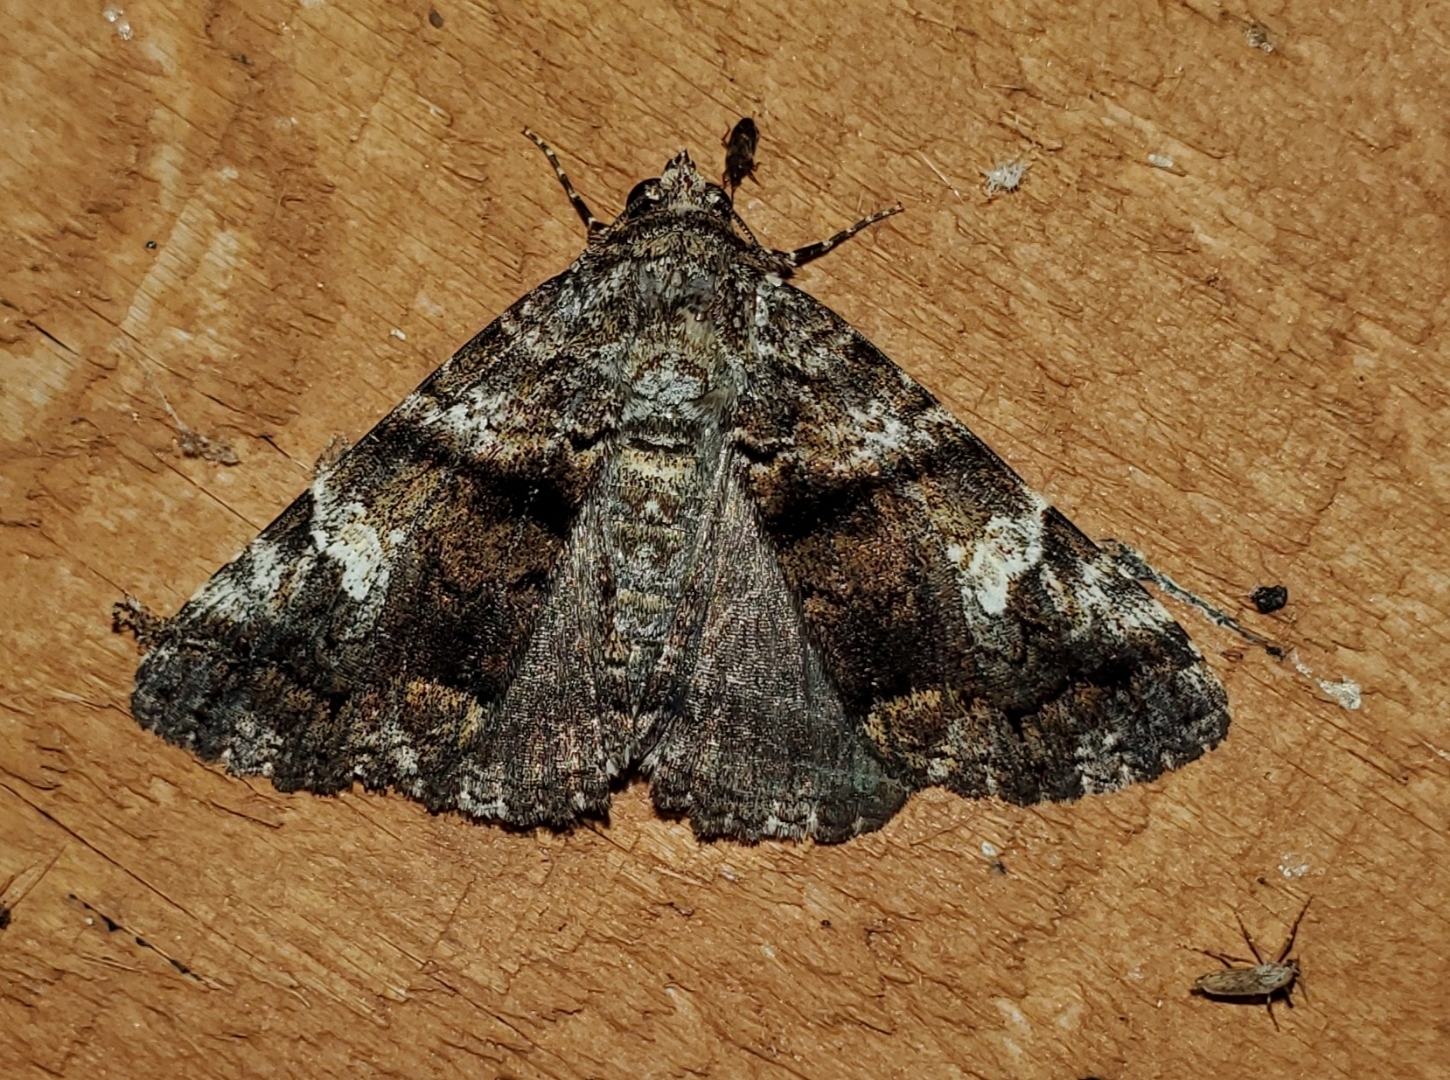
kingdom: Animalia
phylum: Arthropoda
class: Insecta
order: Lepidoptera
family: Erebidae
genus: Metria
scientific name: Metria amella
